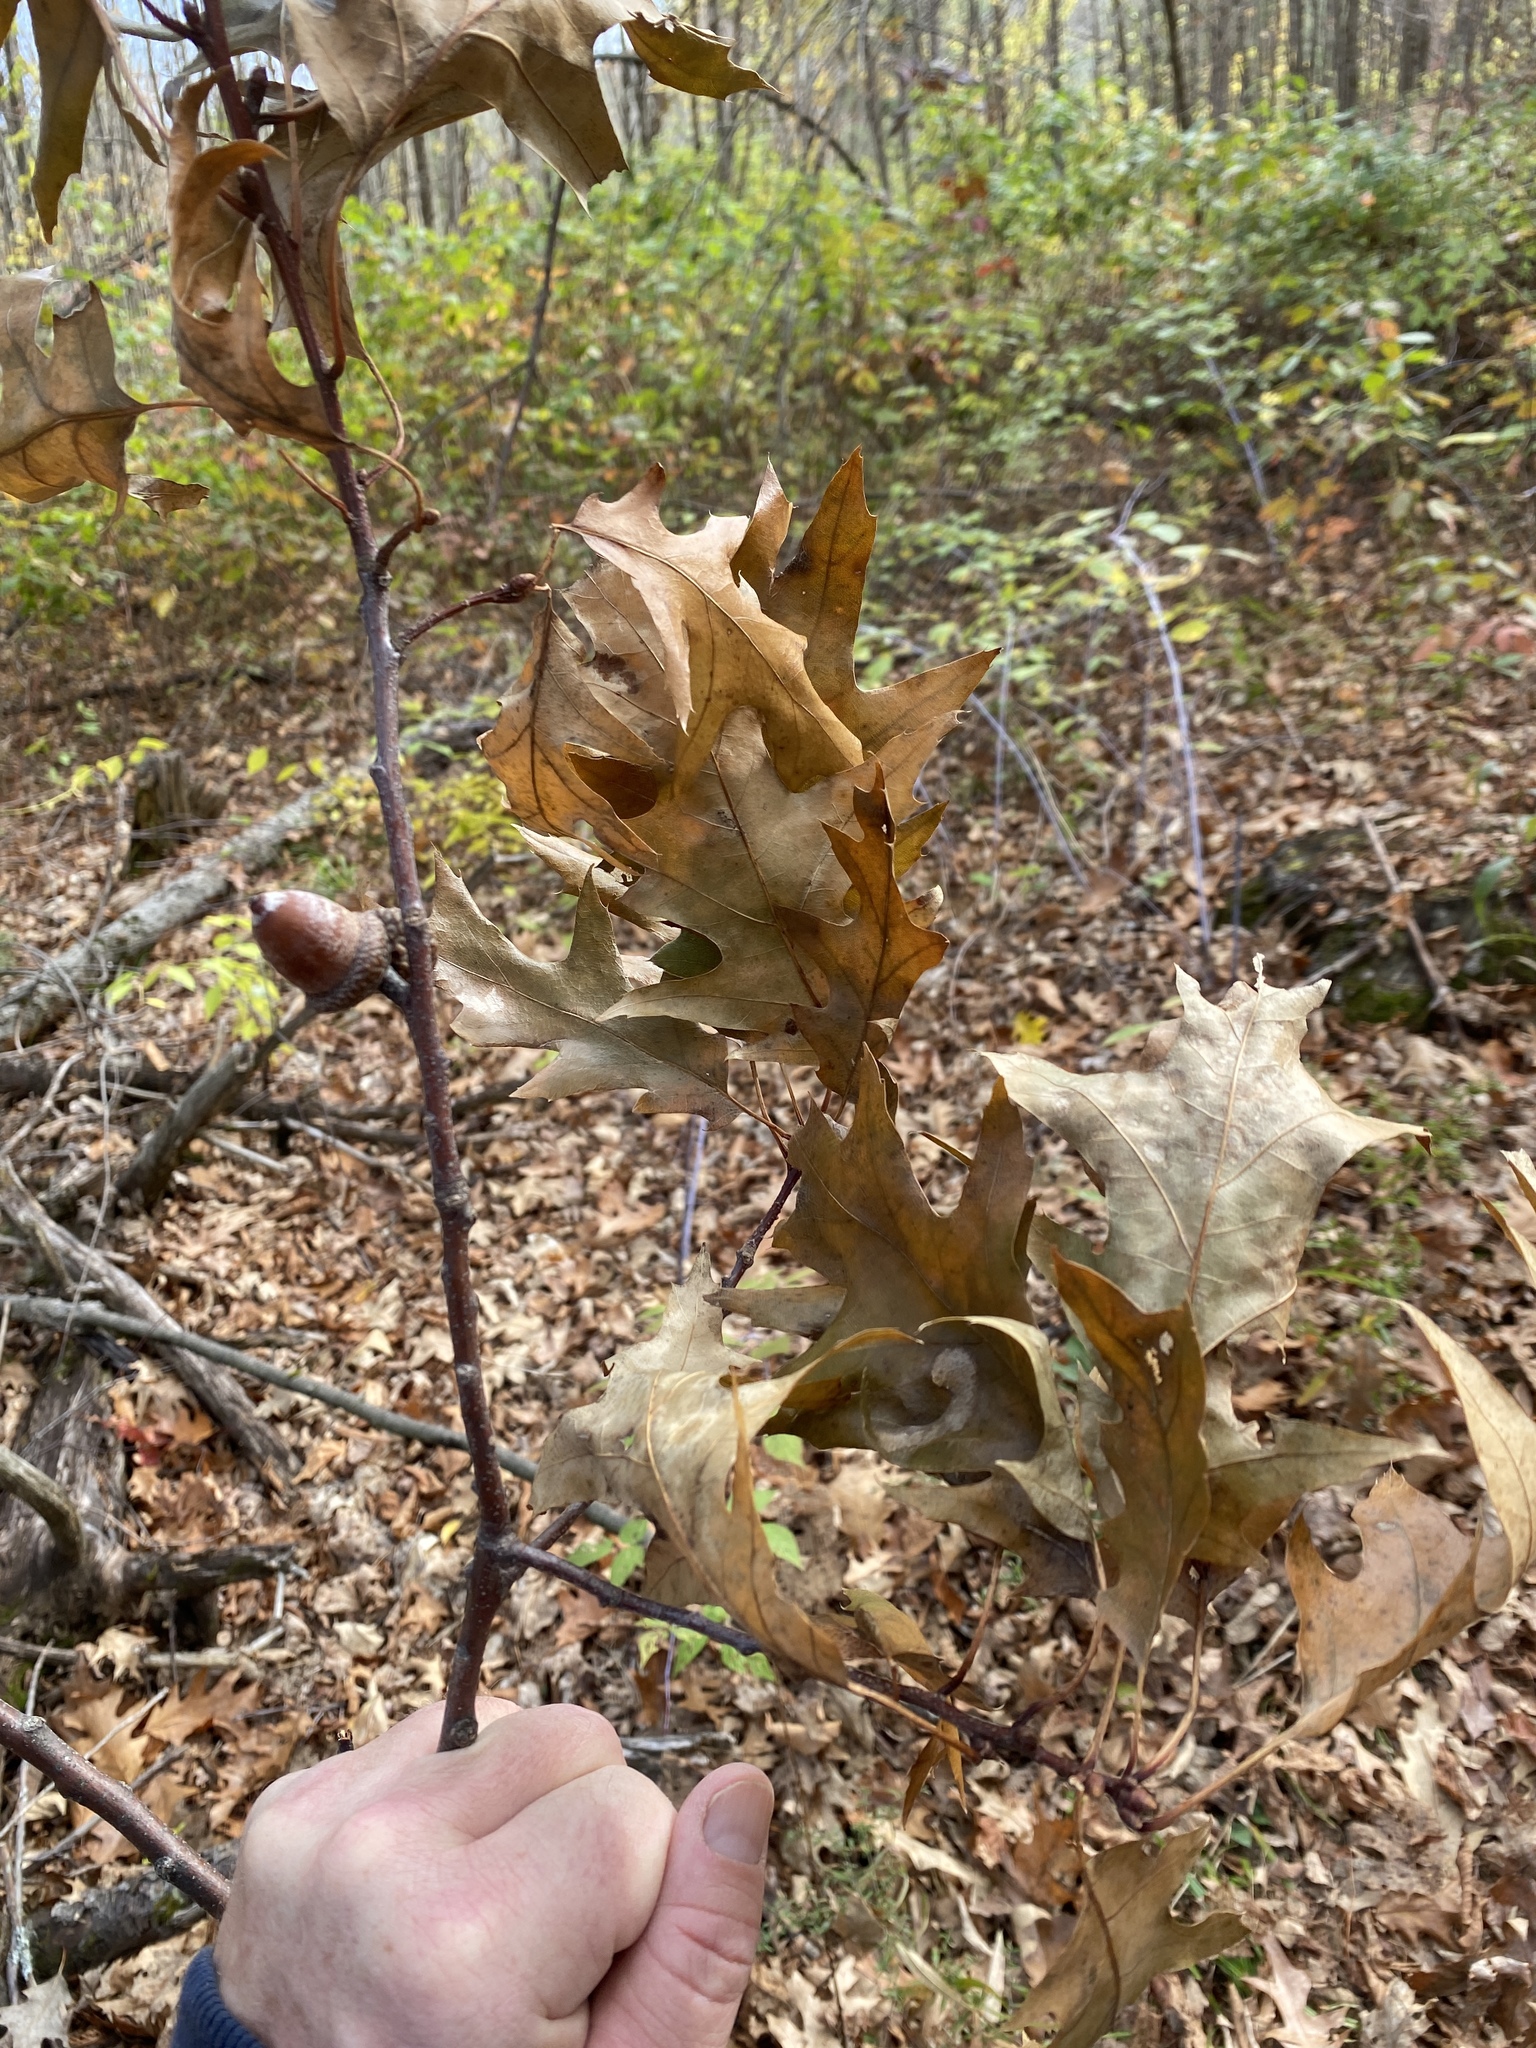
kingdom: Plantae
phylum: Tracheophyta
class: Magnoliopsida
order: Fagales
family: Fagaceae
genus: Quercus
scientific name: Quercus rubra
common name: Red oak
